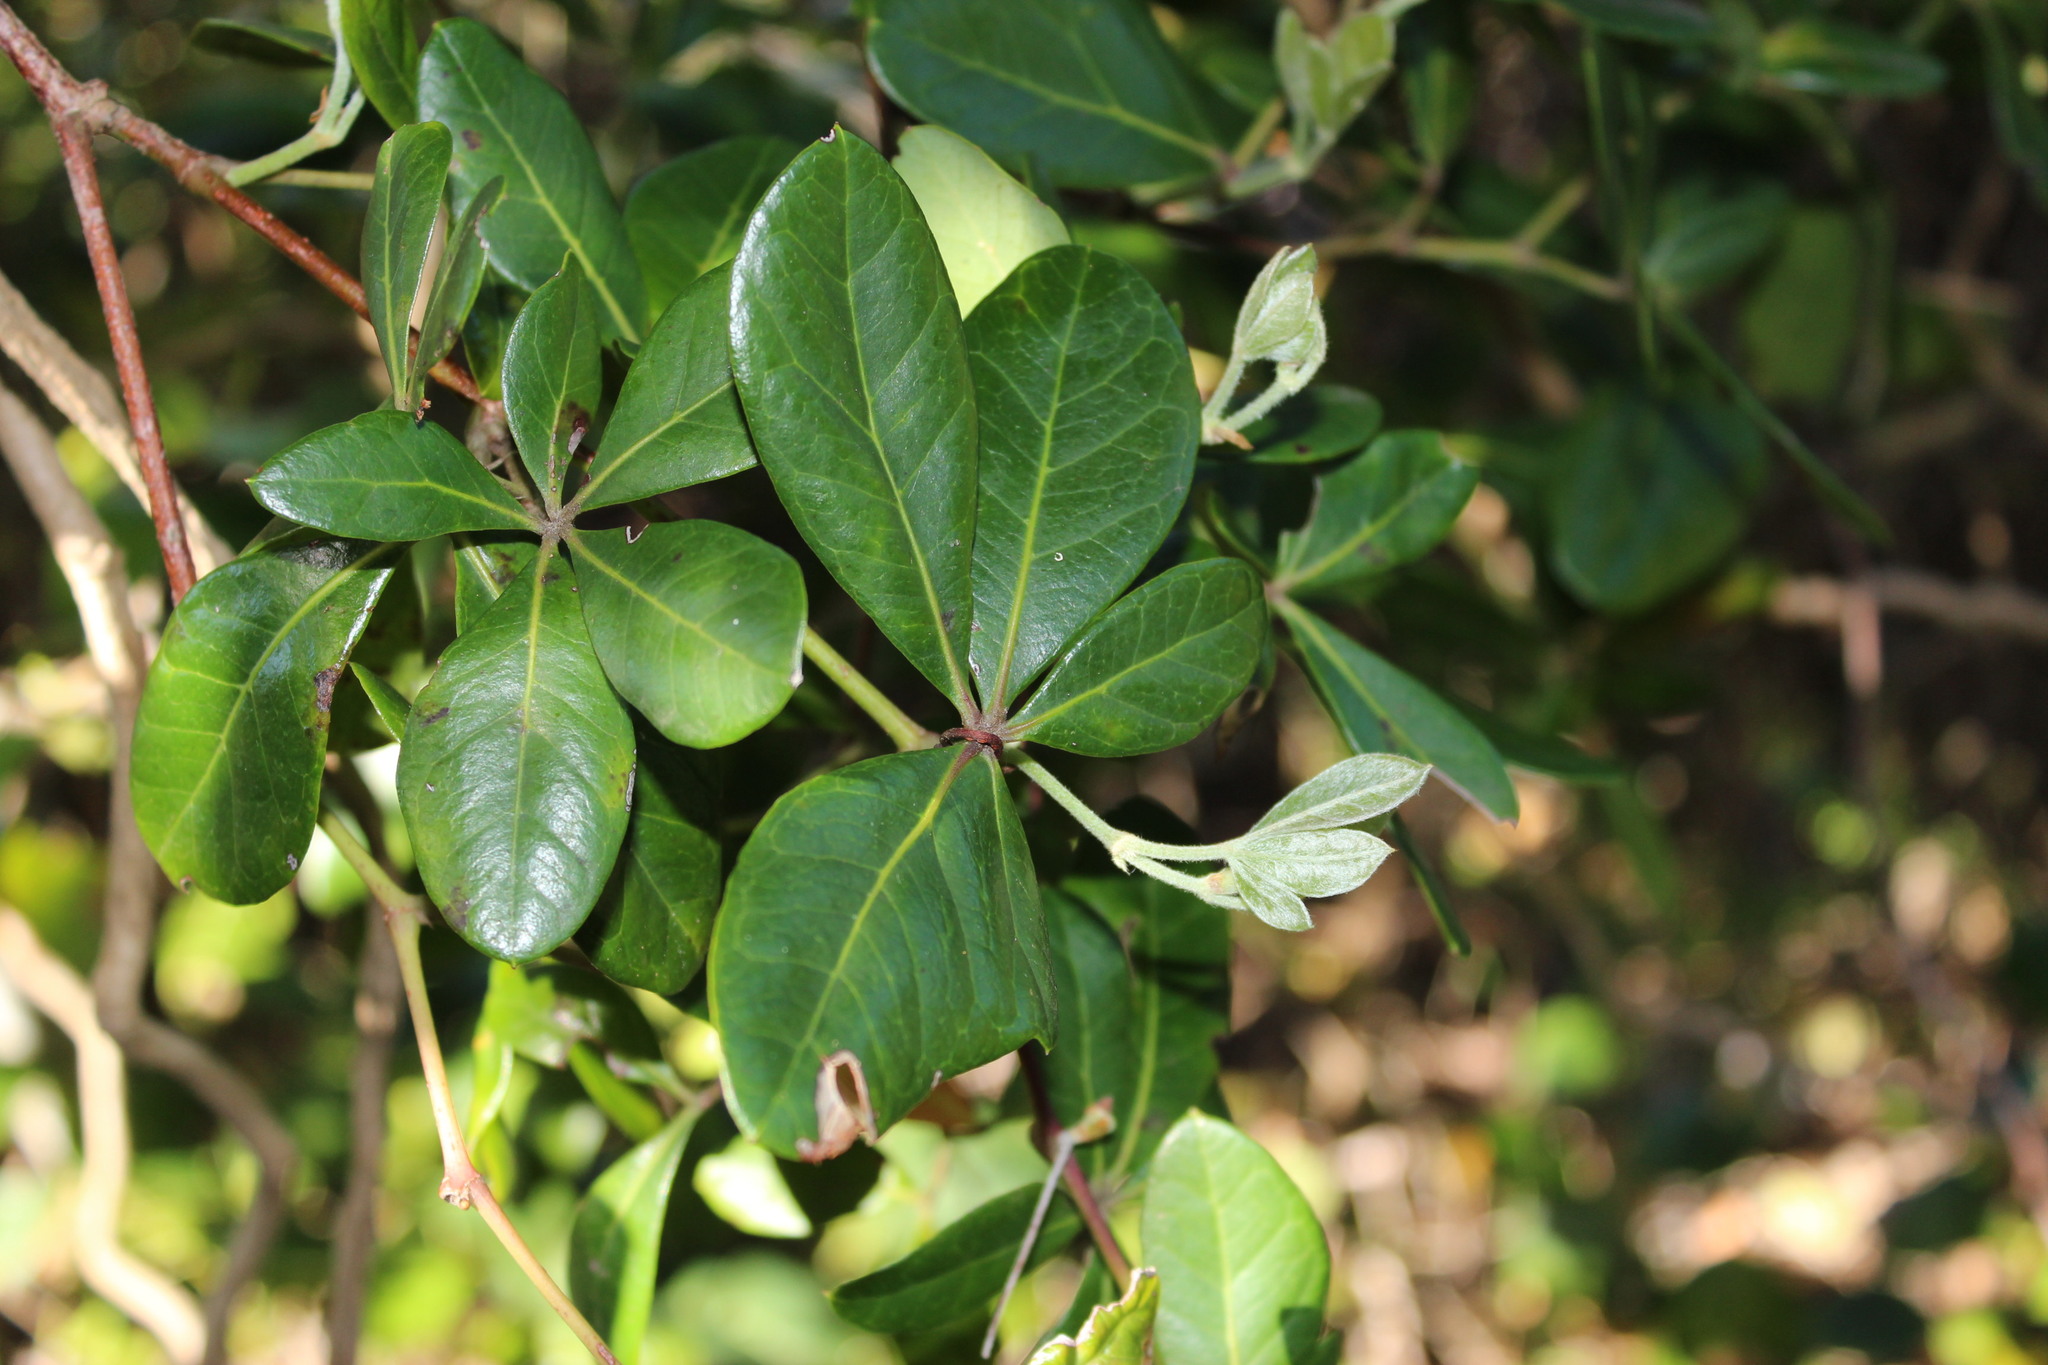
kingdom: Plantae
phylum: Tracheophyta
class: Magnoliopsida
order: Vitales
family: Vitaceae
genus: Rhoicissus
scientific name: Rhoicissus digitata
